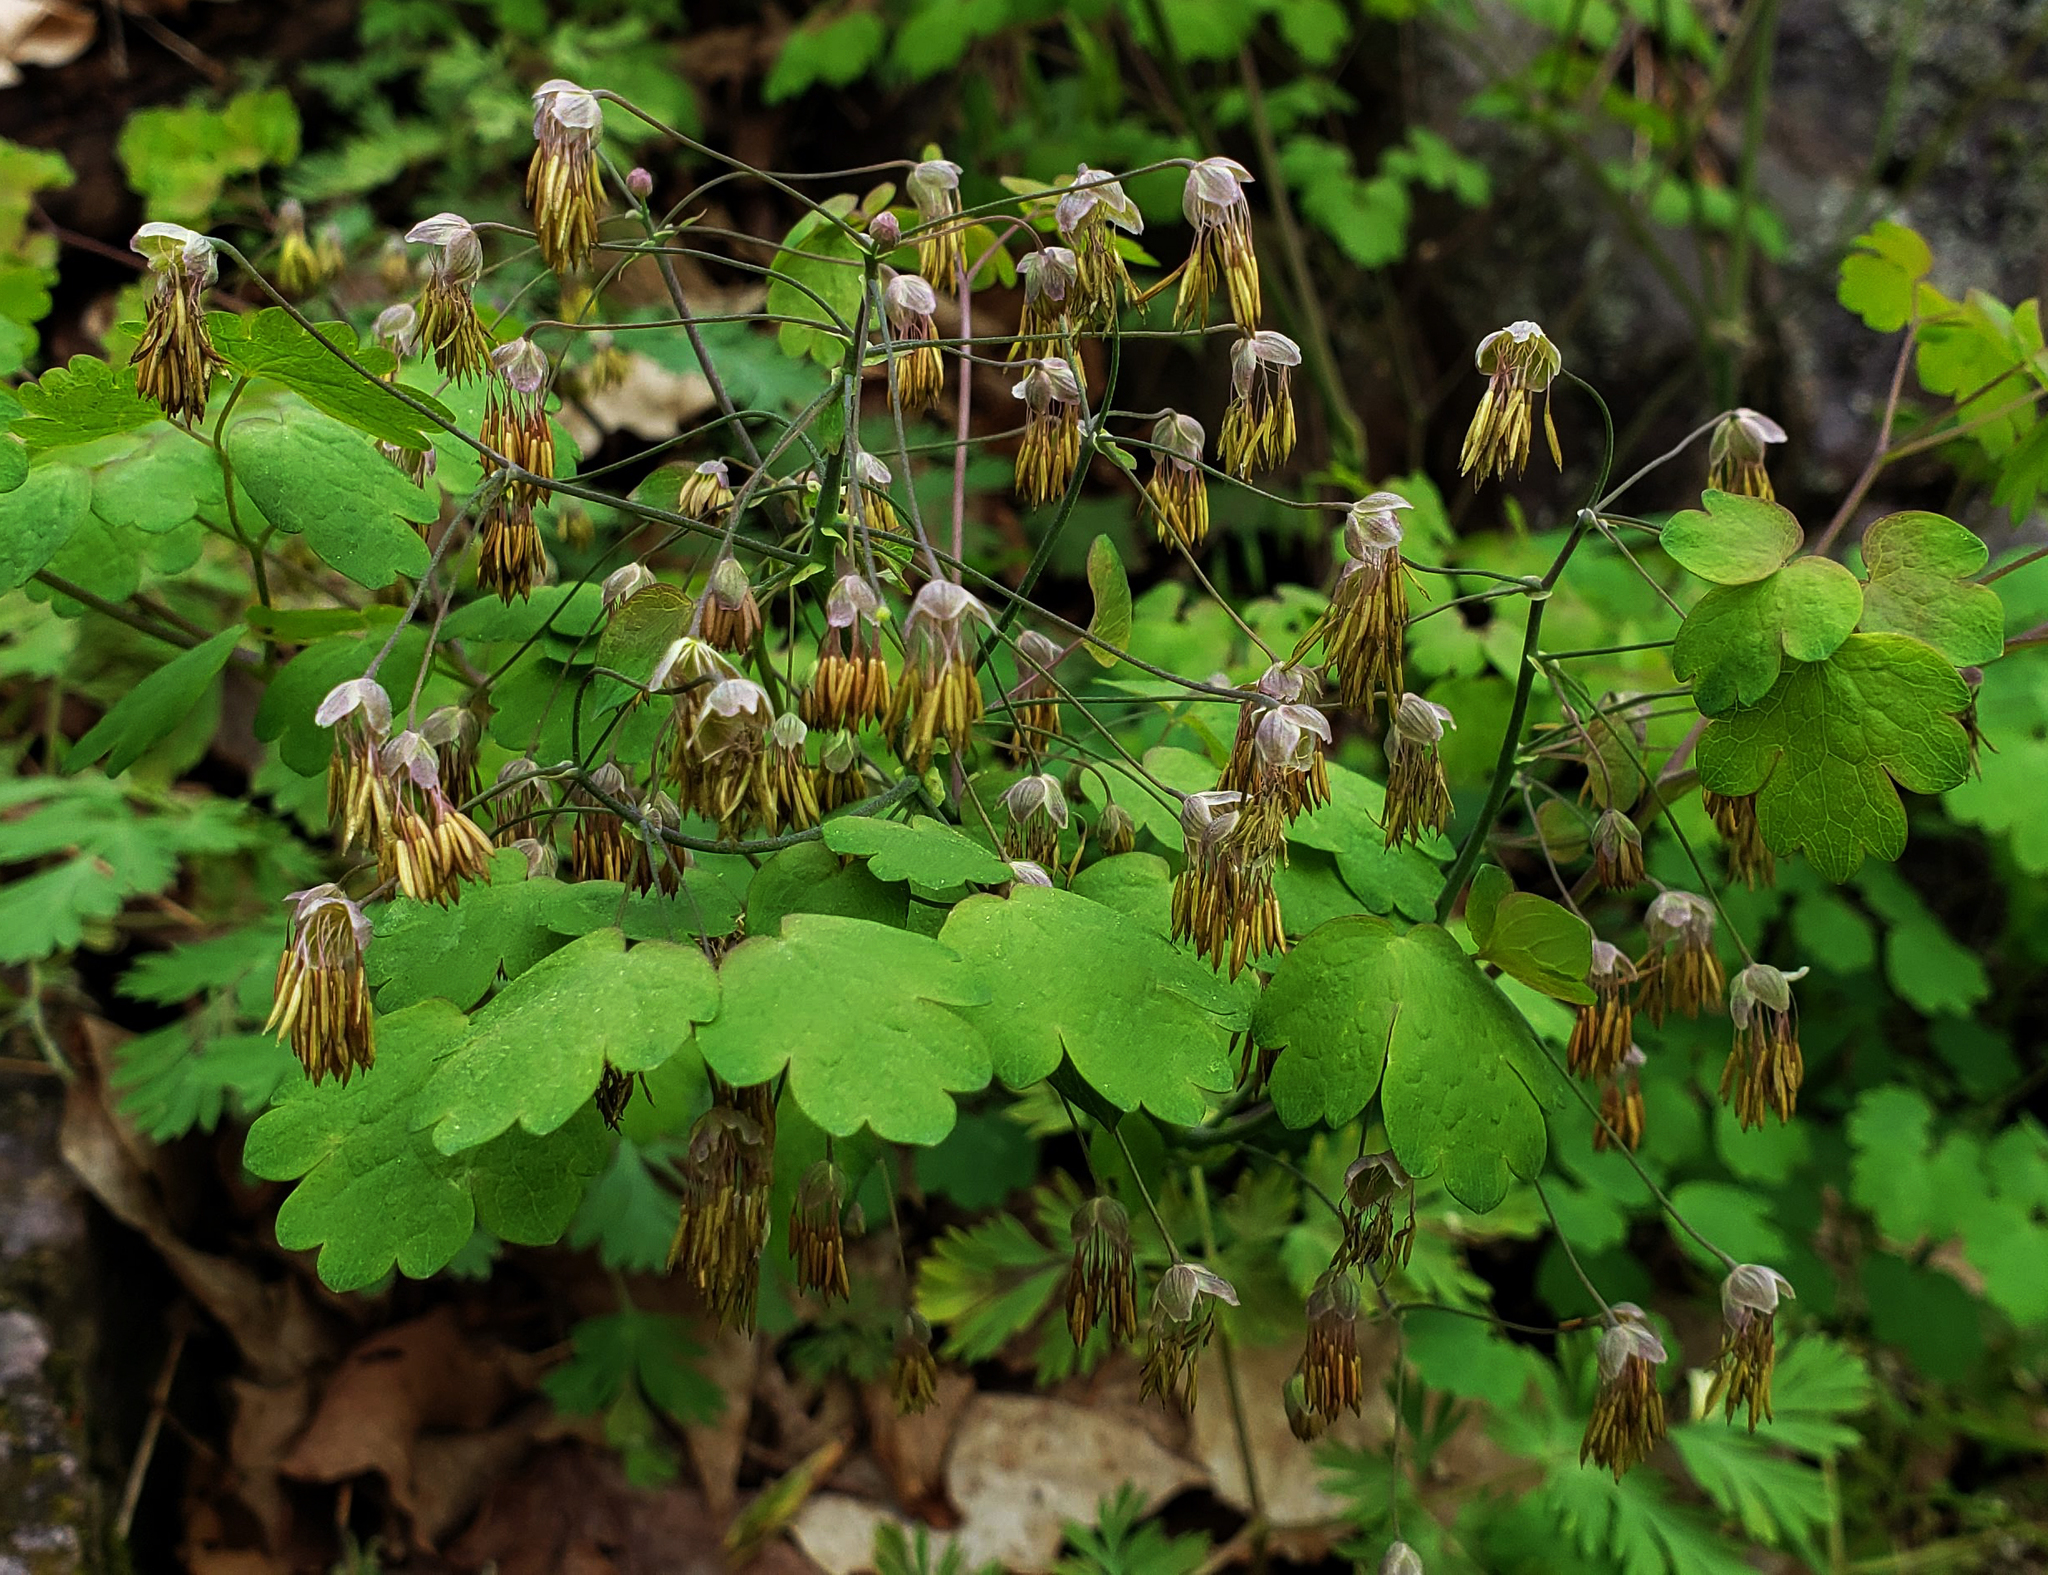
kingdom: Plantae
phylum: Tracheophyta
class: Magnoliopsida
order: Ranunculales
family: Ranunculaceae
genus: Thalictrum
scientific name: Thalictrum dioicum
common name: Early meadow-rue
